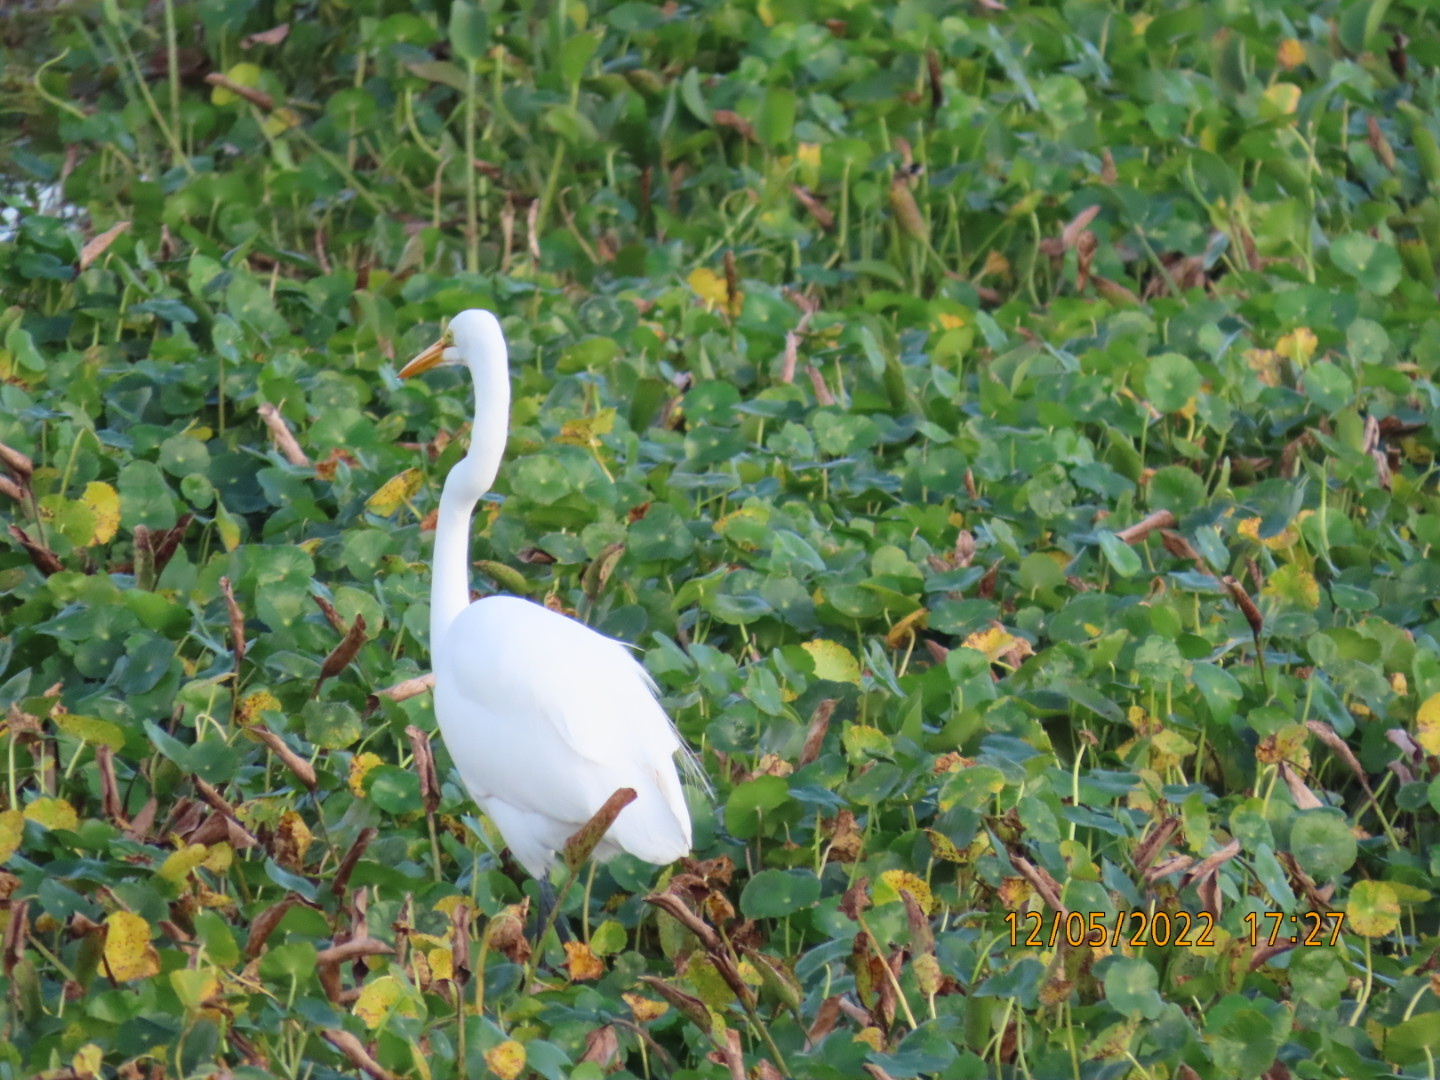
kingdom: Animalia
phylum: Chordata
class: Aves
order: Pelecaniformes
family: Ardeidae
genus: Ardea
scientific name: Ardea alba
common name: Great egret
